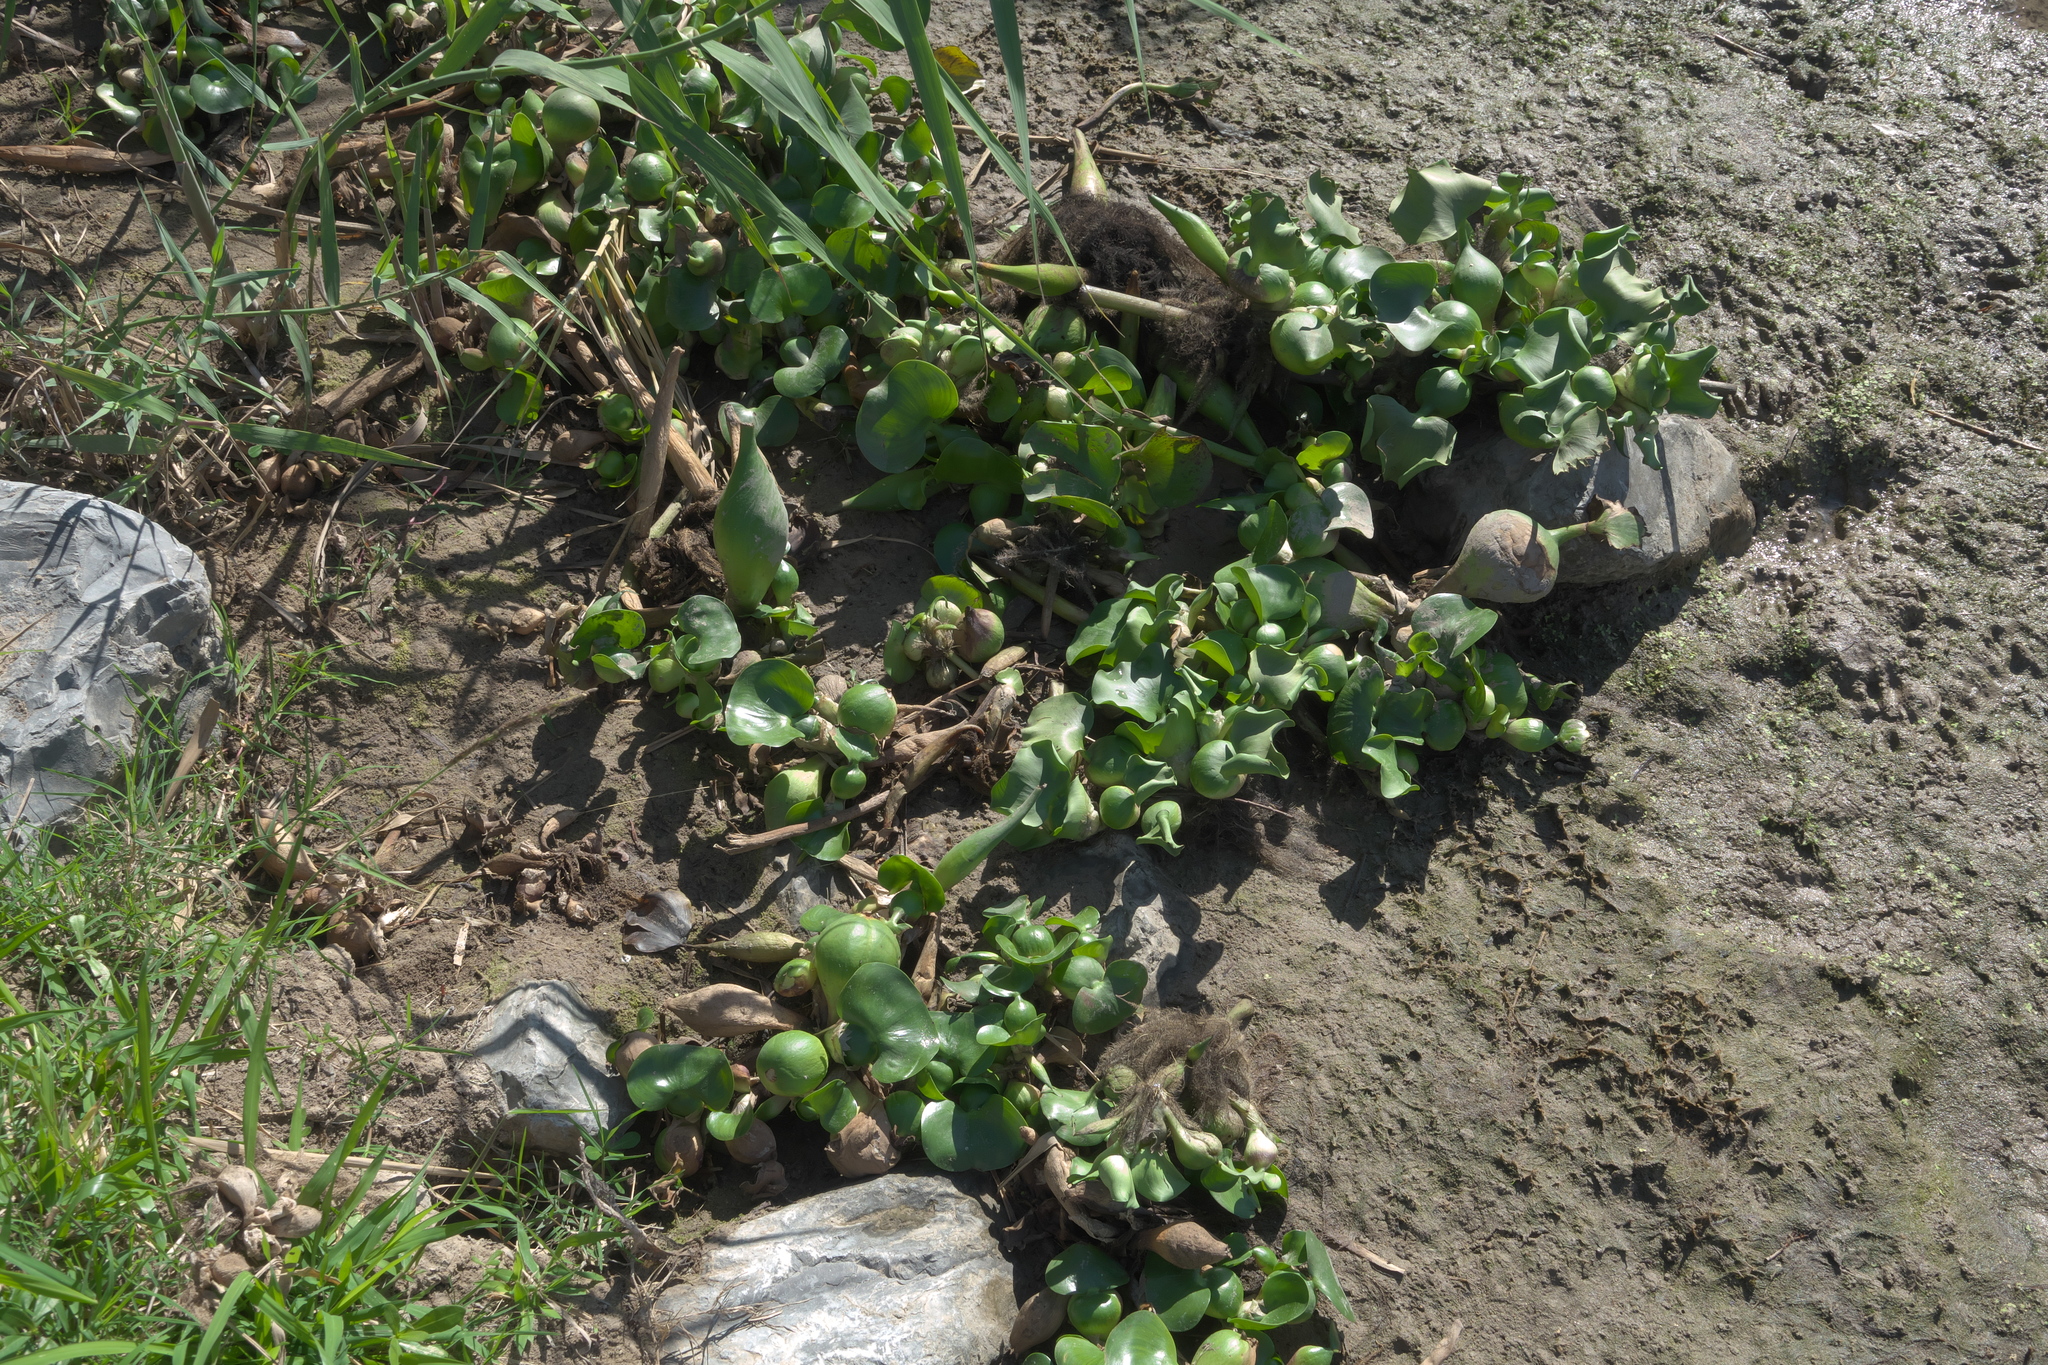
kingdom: Plantae
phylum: Tracheophyta
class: Liliopsida
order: Commelinales
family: Pontederiaceae
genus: Pontederia
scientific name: Pontederia crassipes
